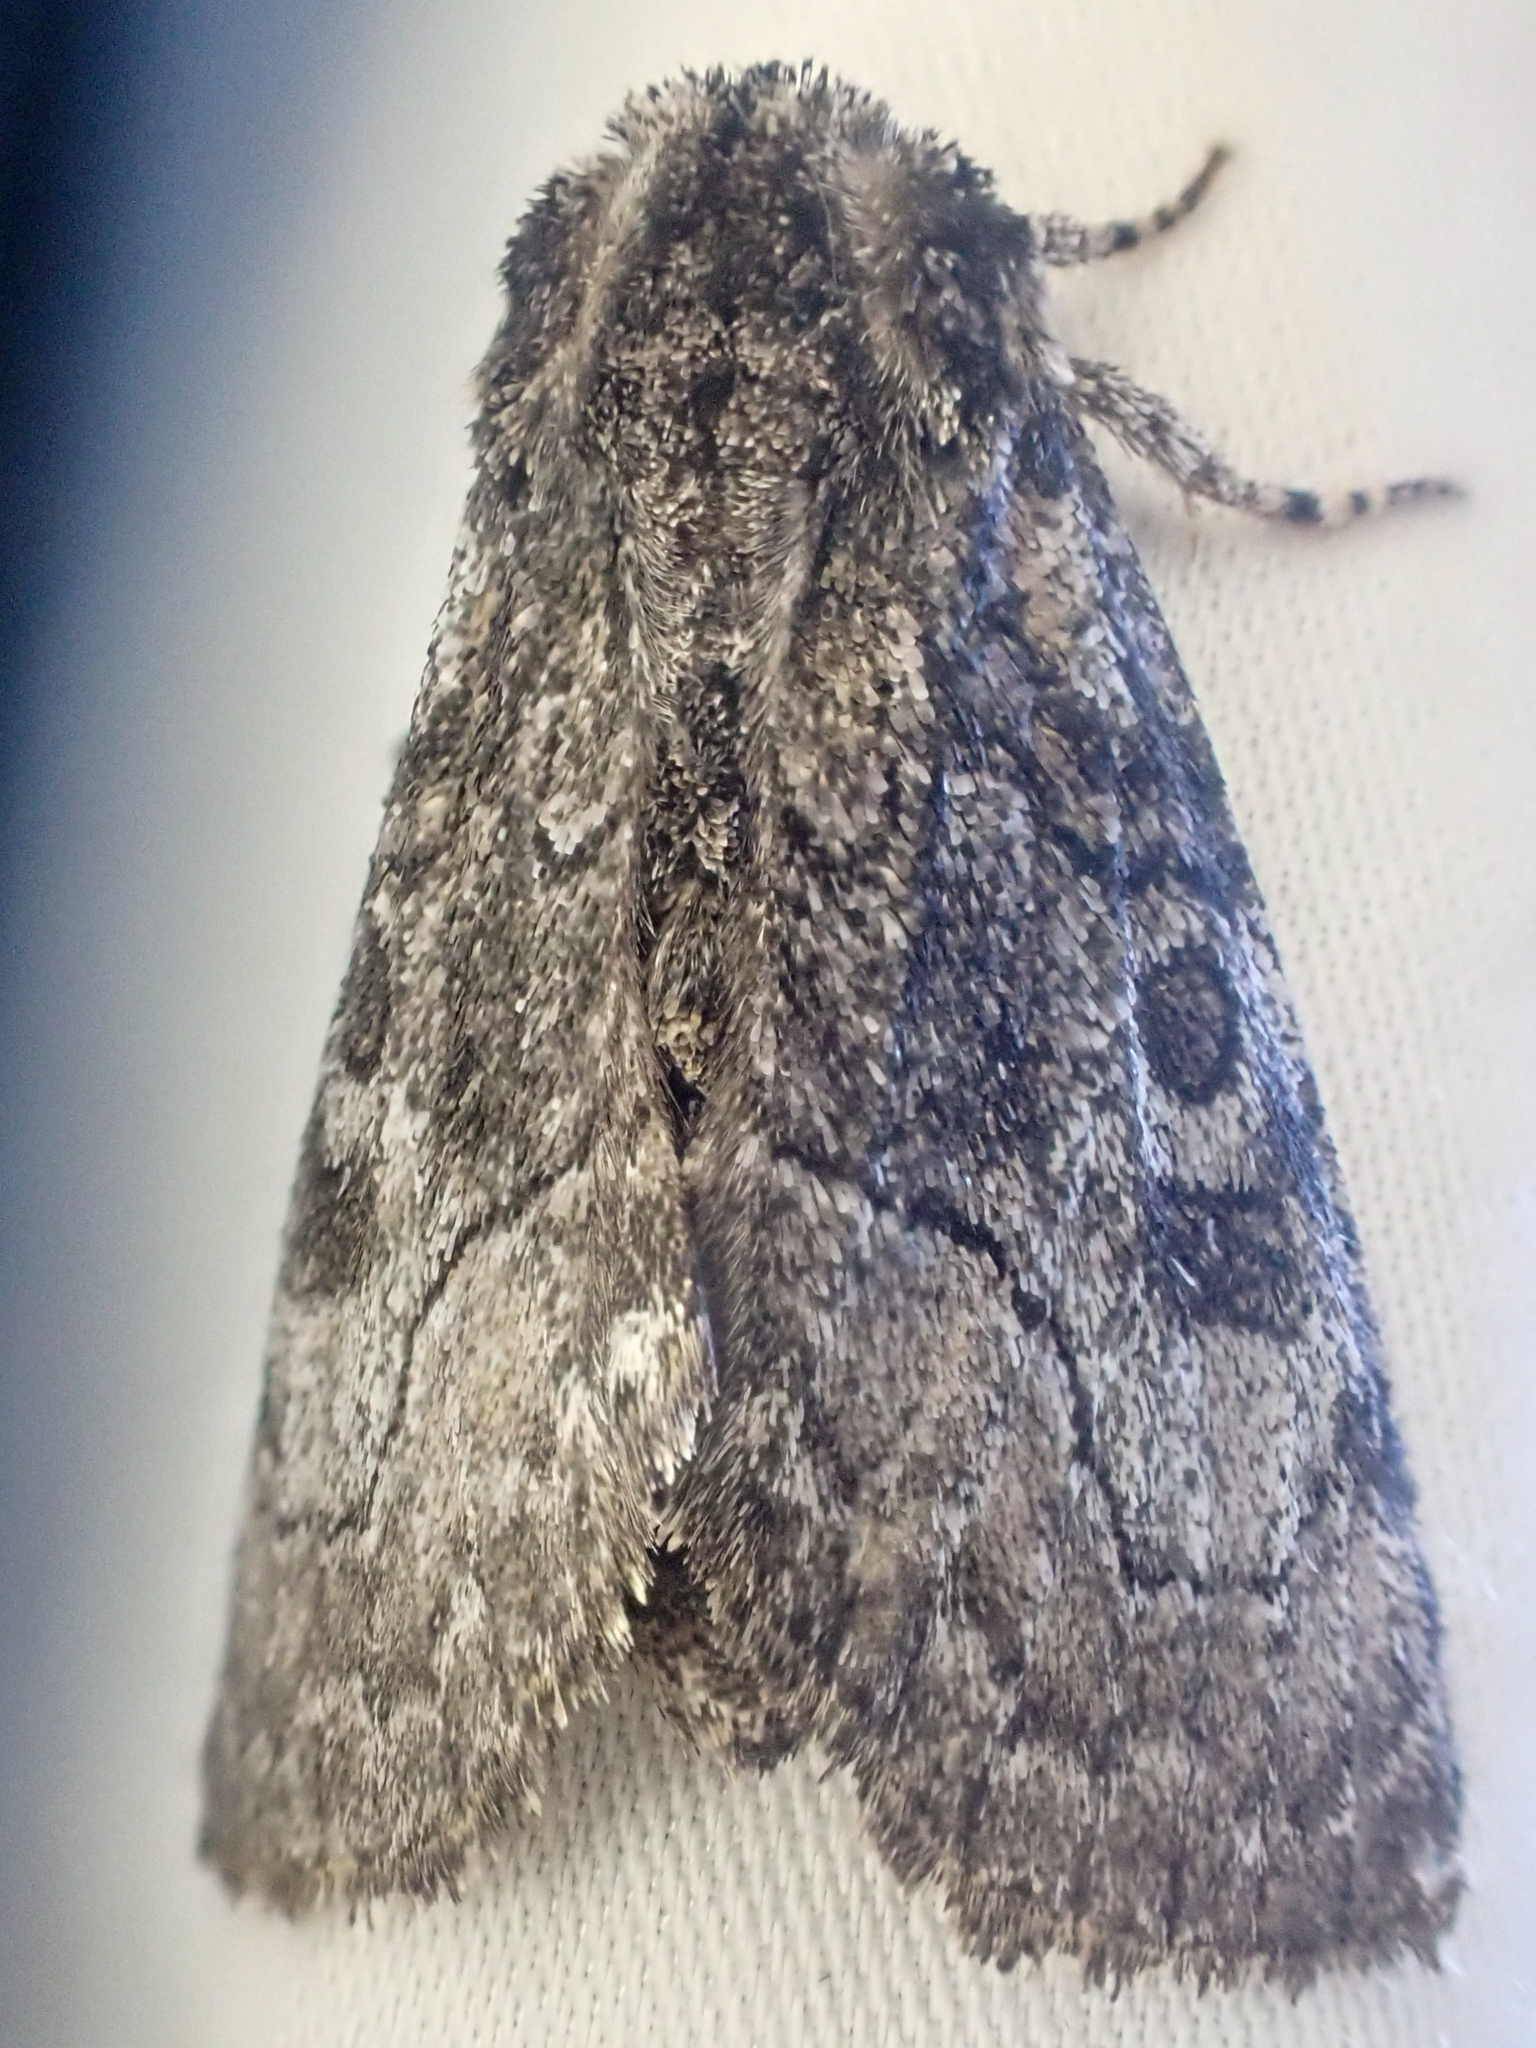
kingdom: Animalia
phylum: Arthropoda
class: Insecta
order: Lepidoptera
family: Noctuidae
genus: Raphia
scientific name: Raphia frater
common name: Brother
